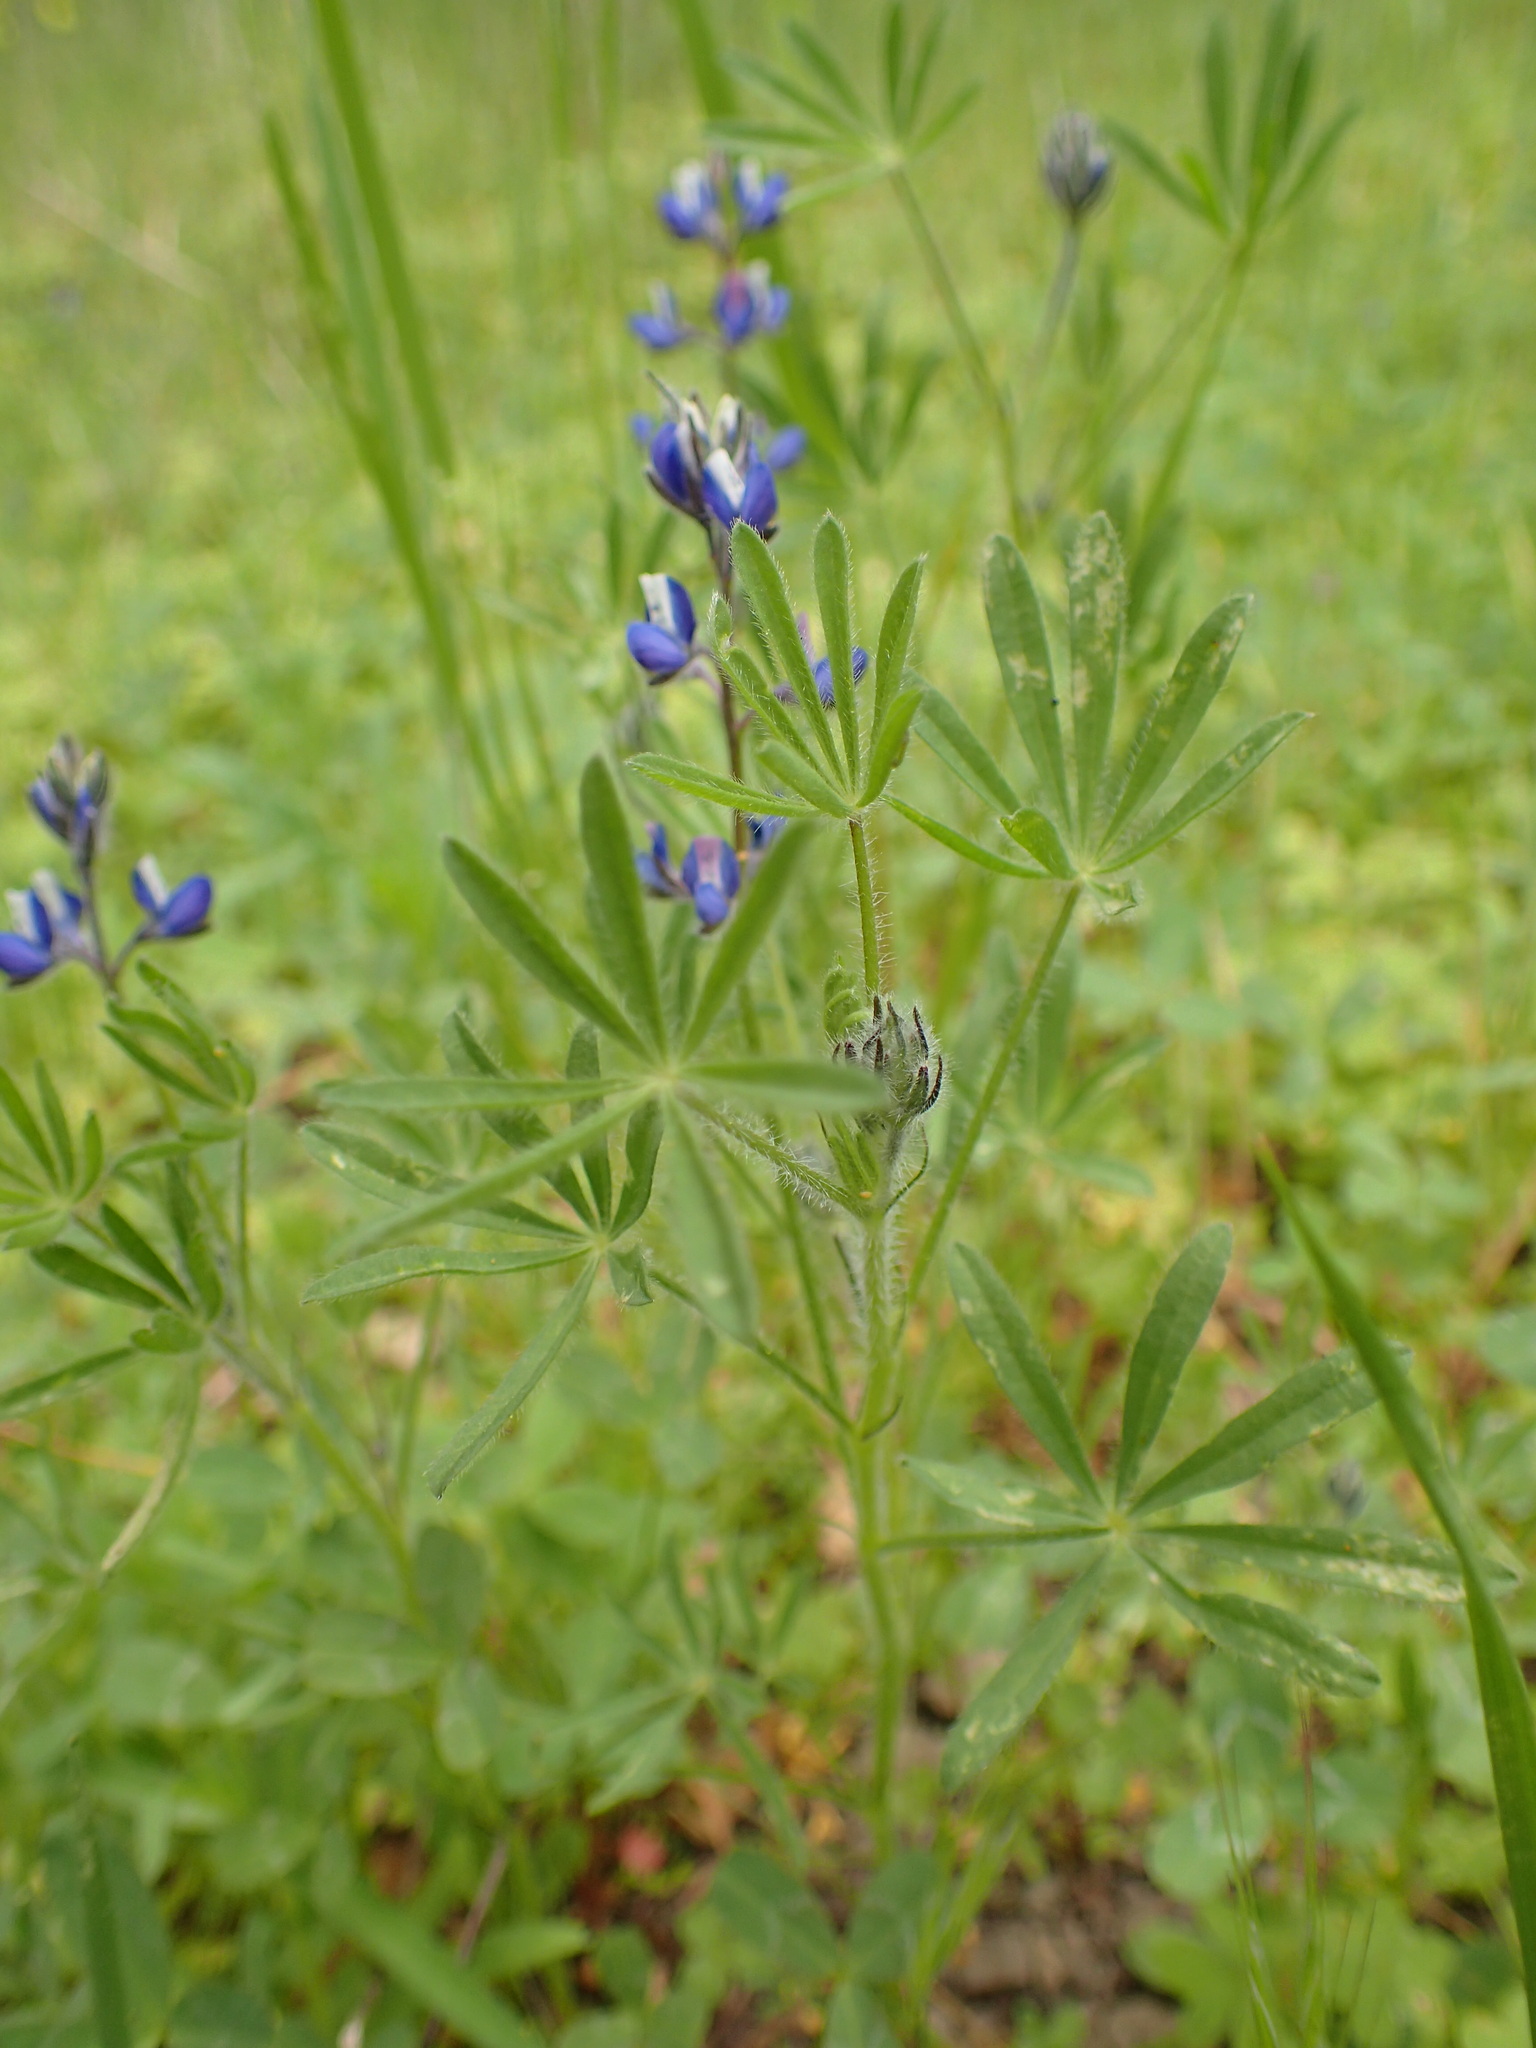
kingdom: Plantae
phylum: Tracheophyta
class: Magnoliopsida
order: Fabales
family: Fabaceae
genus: Lupinus
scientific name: Lupinus bicolor
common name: Miniature lupine
